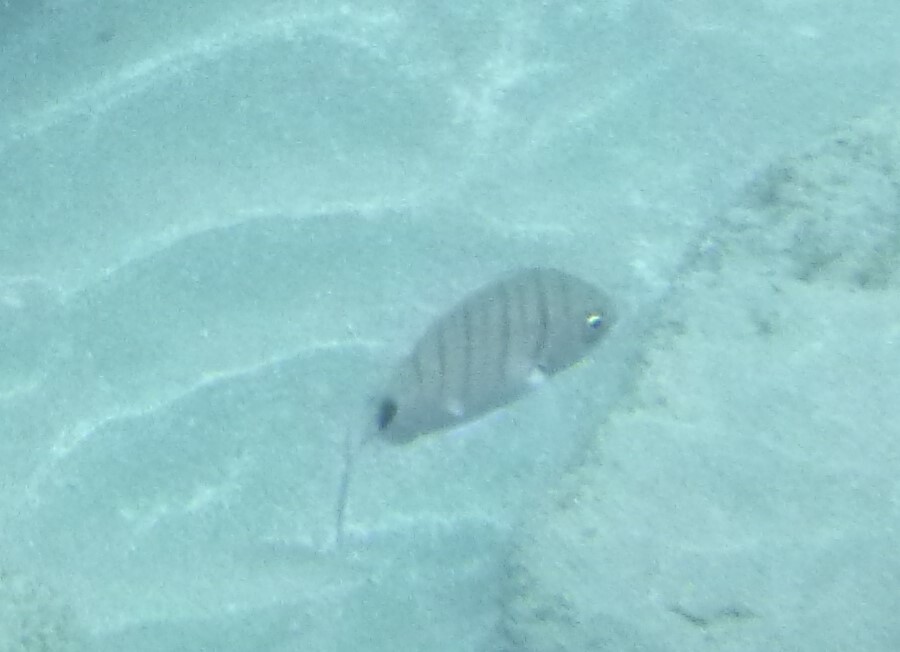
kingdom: Animalia
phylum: Chordata
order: Perciformes
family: Sparidae
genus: Diplodus
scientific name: Diplodus cadenati
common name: Moroccan white seabream
